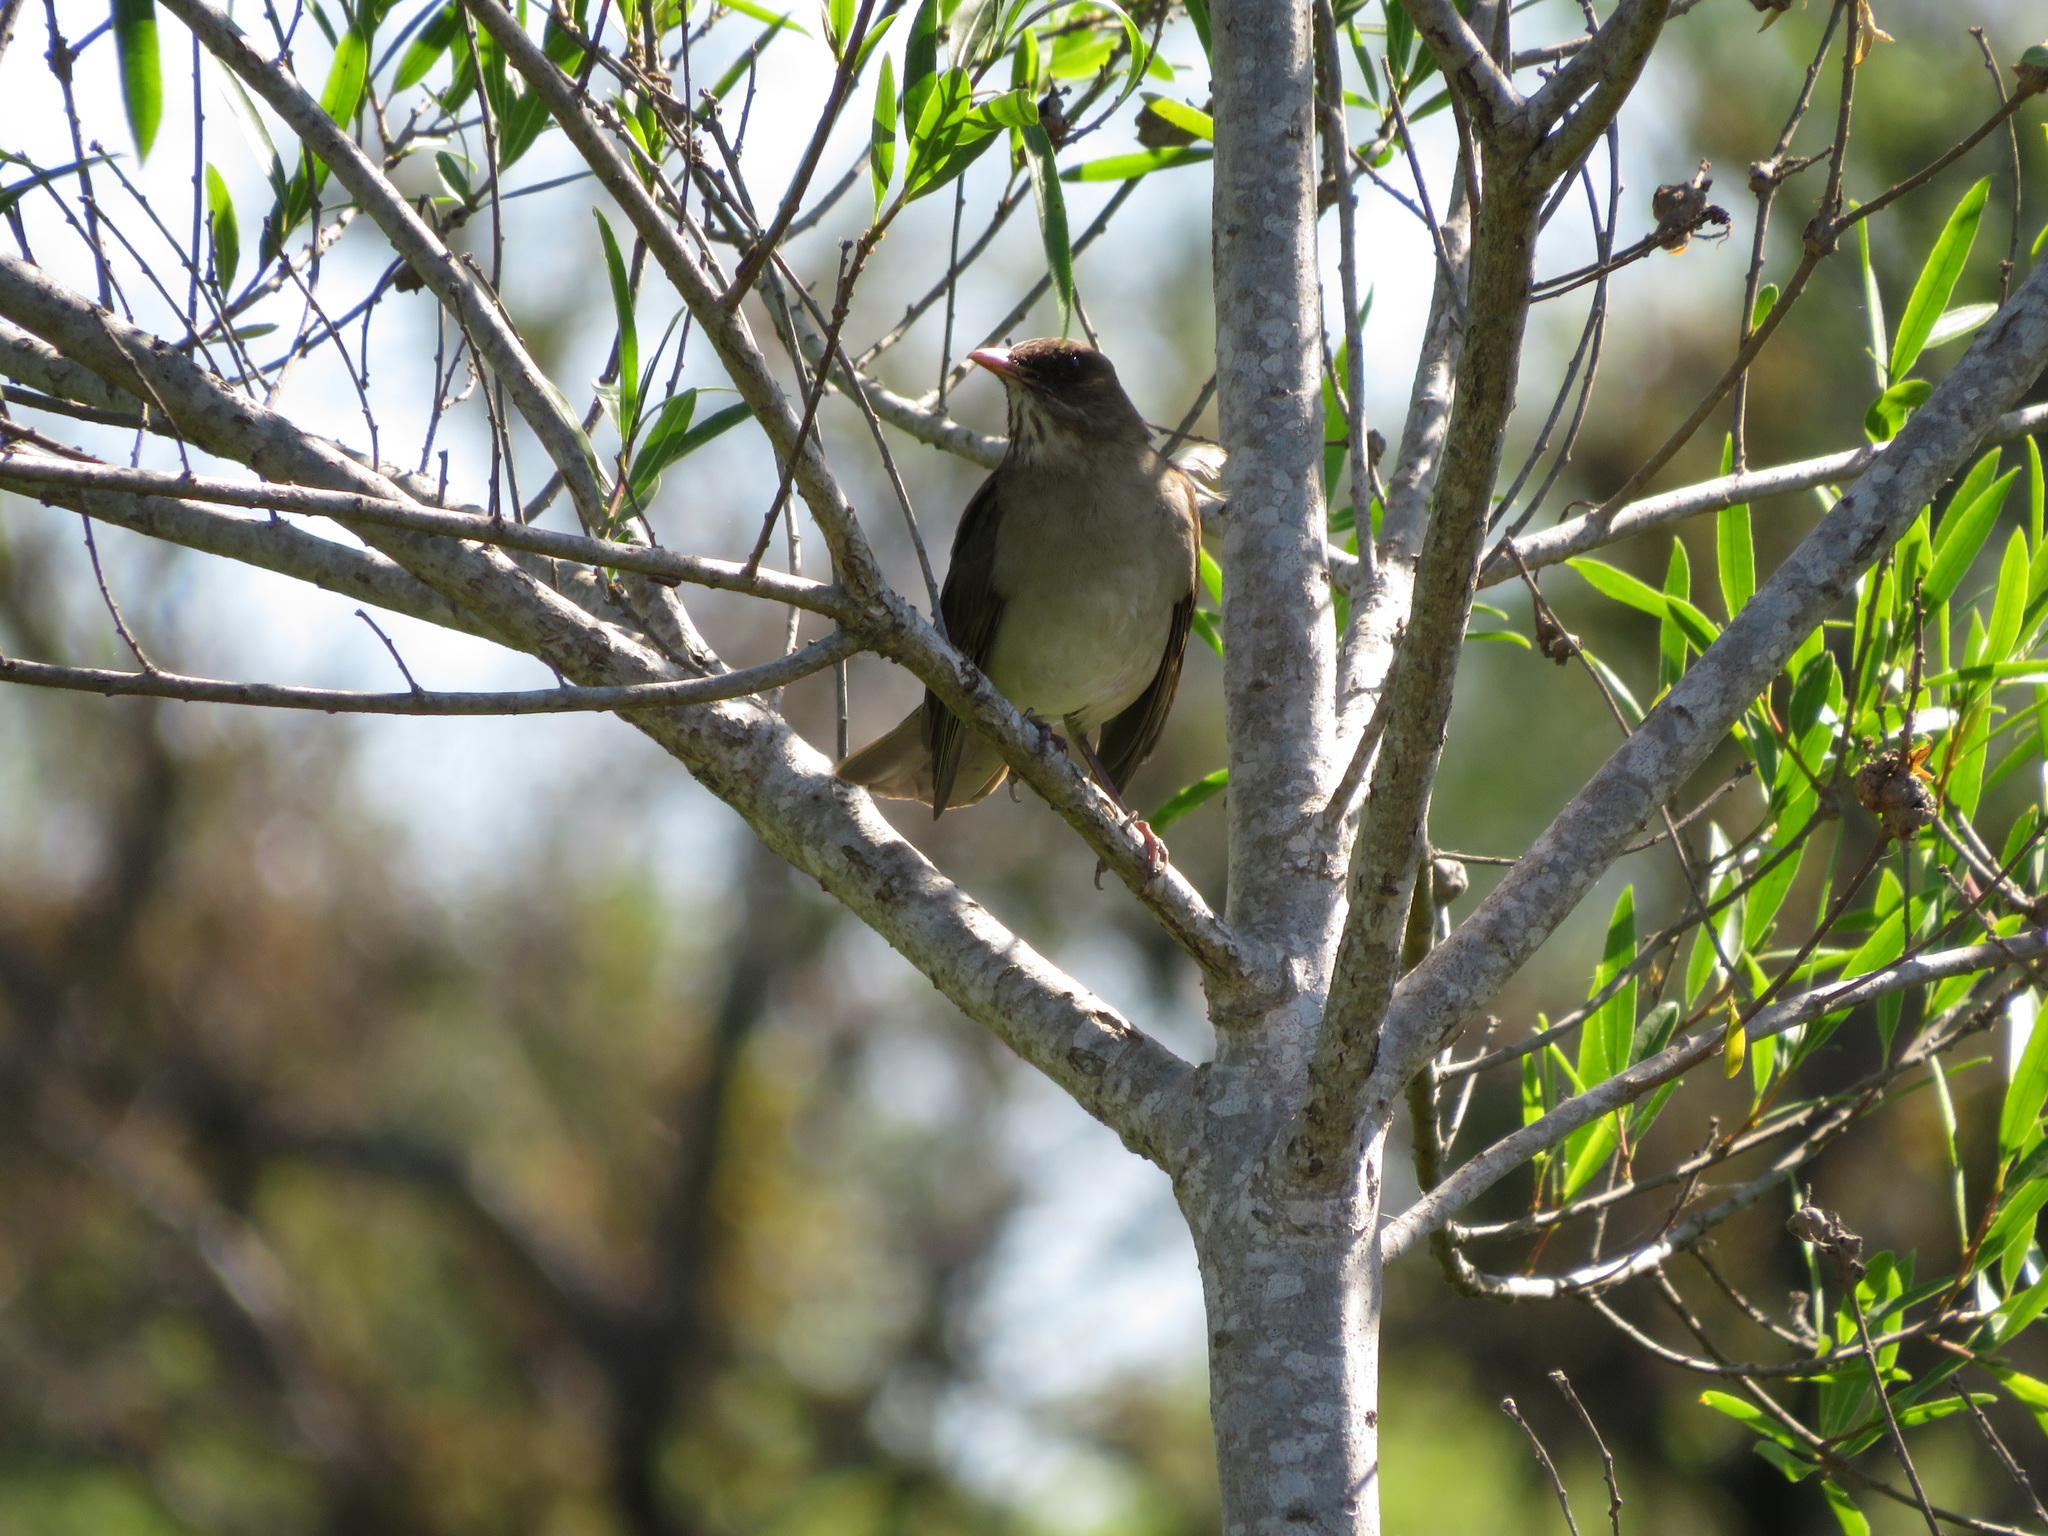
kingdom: Animalia
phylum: Chordata
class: Aves
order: Passeriformes
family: Turdidae
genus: Turdus
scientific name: Turdus amaurochalinus
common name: Creamy-bellied thrush
